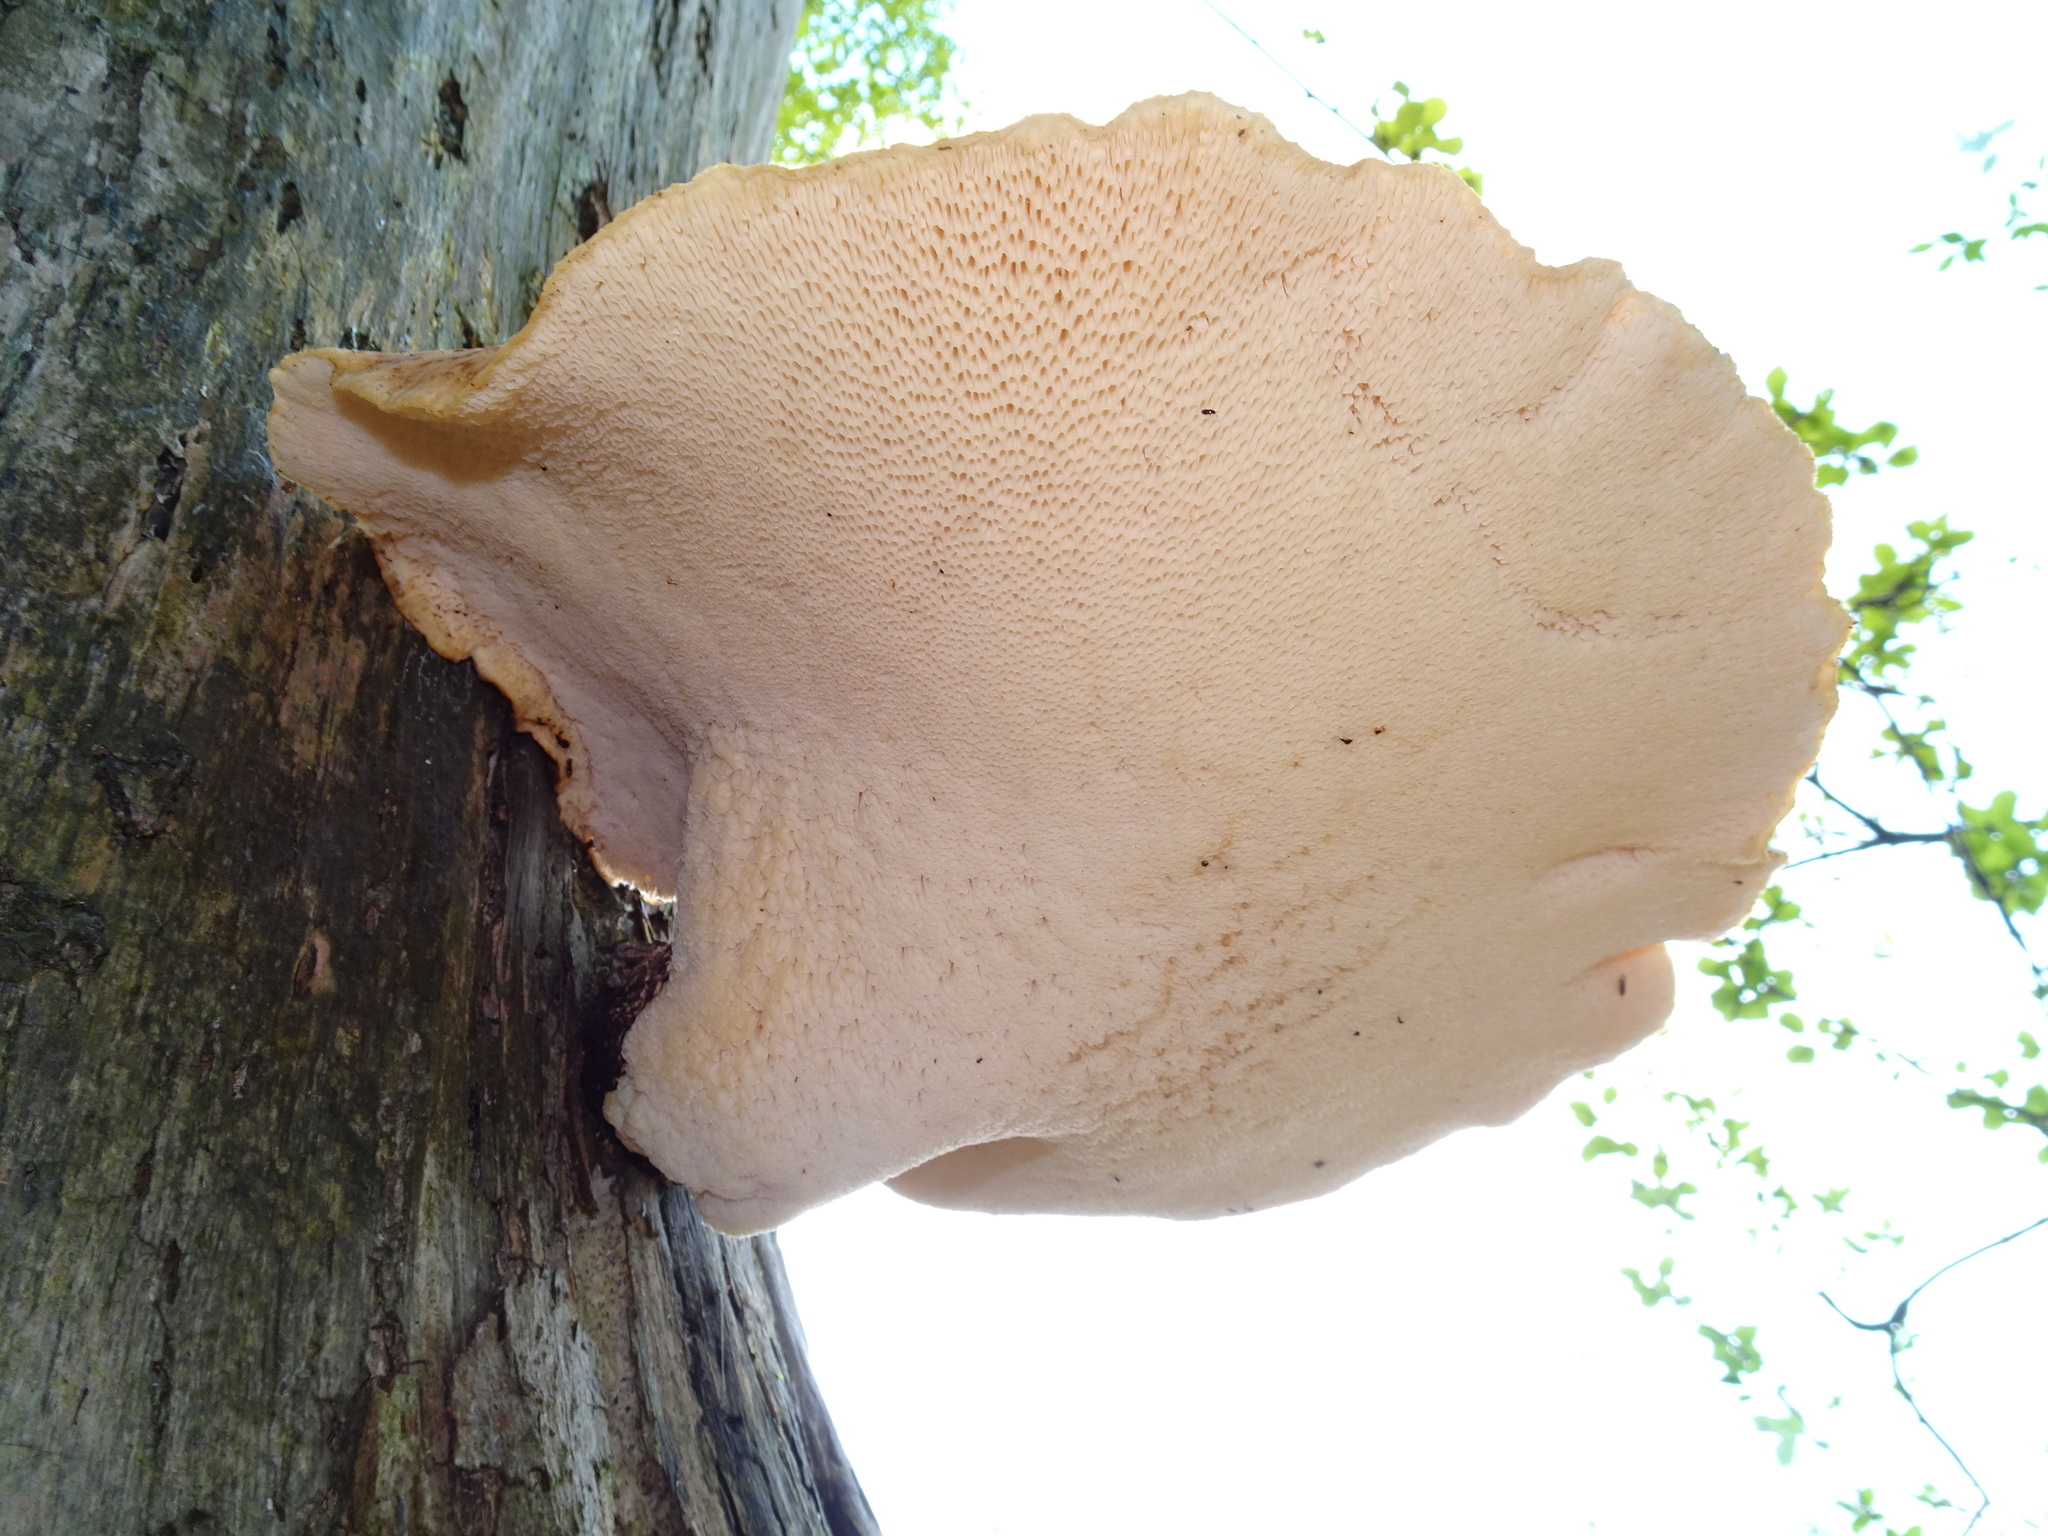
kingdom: Fungi
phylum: Basidiomycota
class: Agaricomycetes
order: Polyporales
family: Polyporaceae
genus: Cerioporus
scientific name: Cerioporus squamosus
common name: Dryad's saddle
